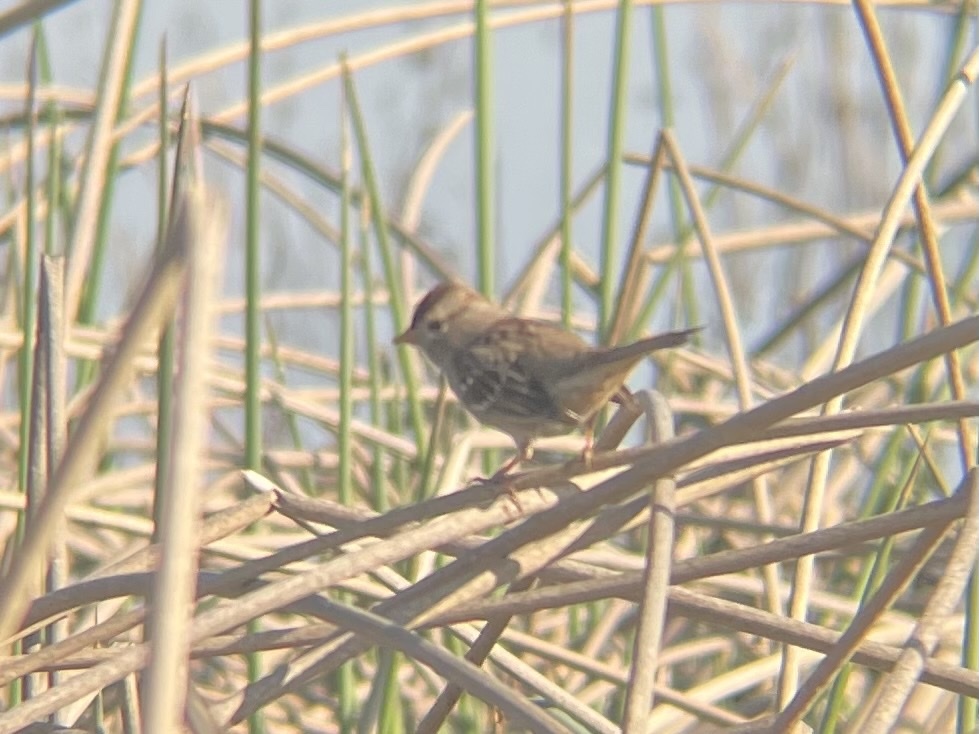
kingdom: Animalia
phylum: Chordata
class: Aves
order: Passeriformes
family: Passerellidae
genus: Zonotrichia
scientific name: Zonotrichia leucophrys
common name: White-crowned sparrow
